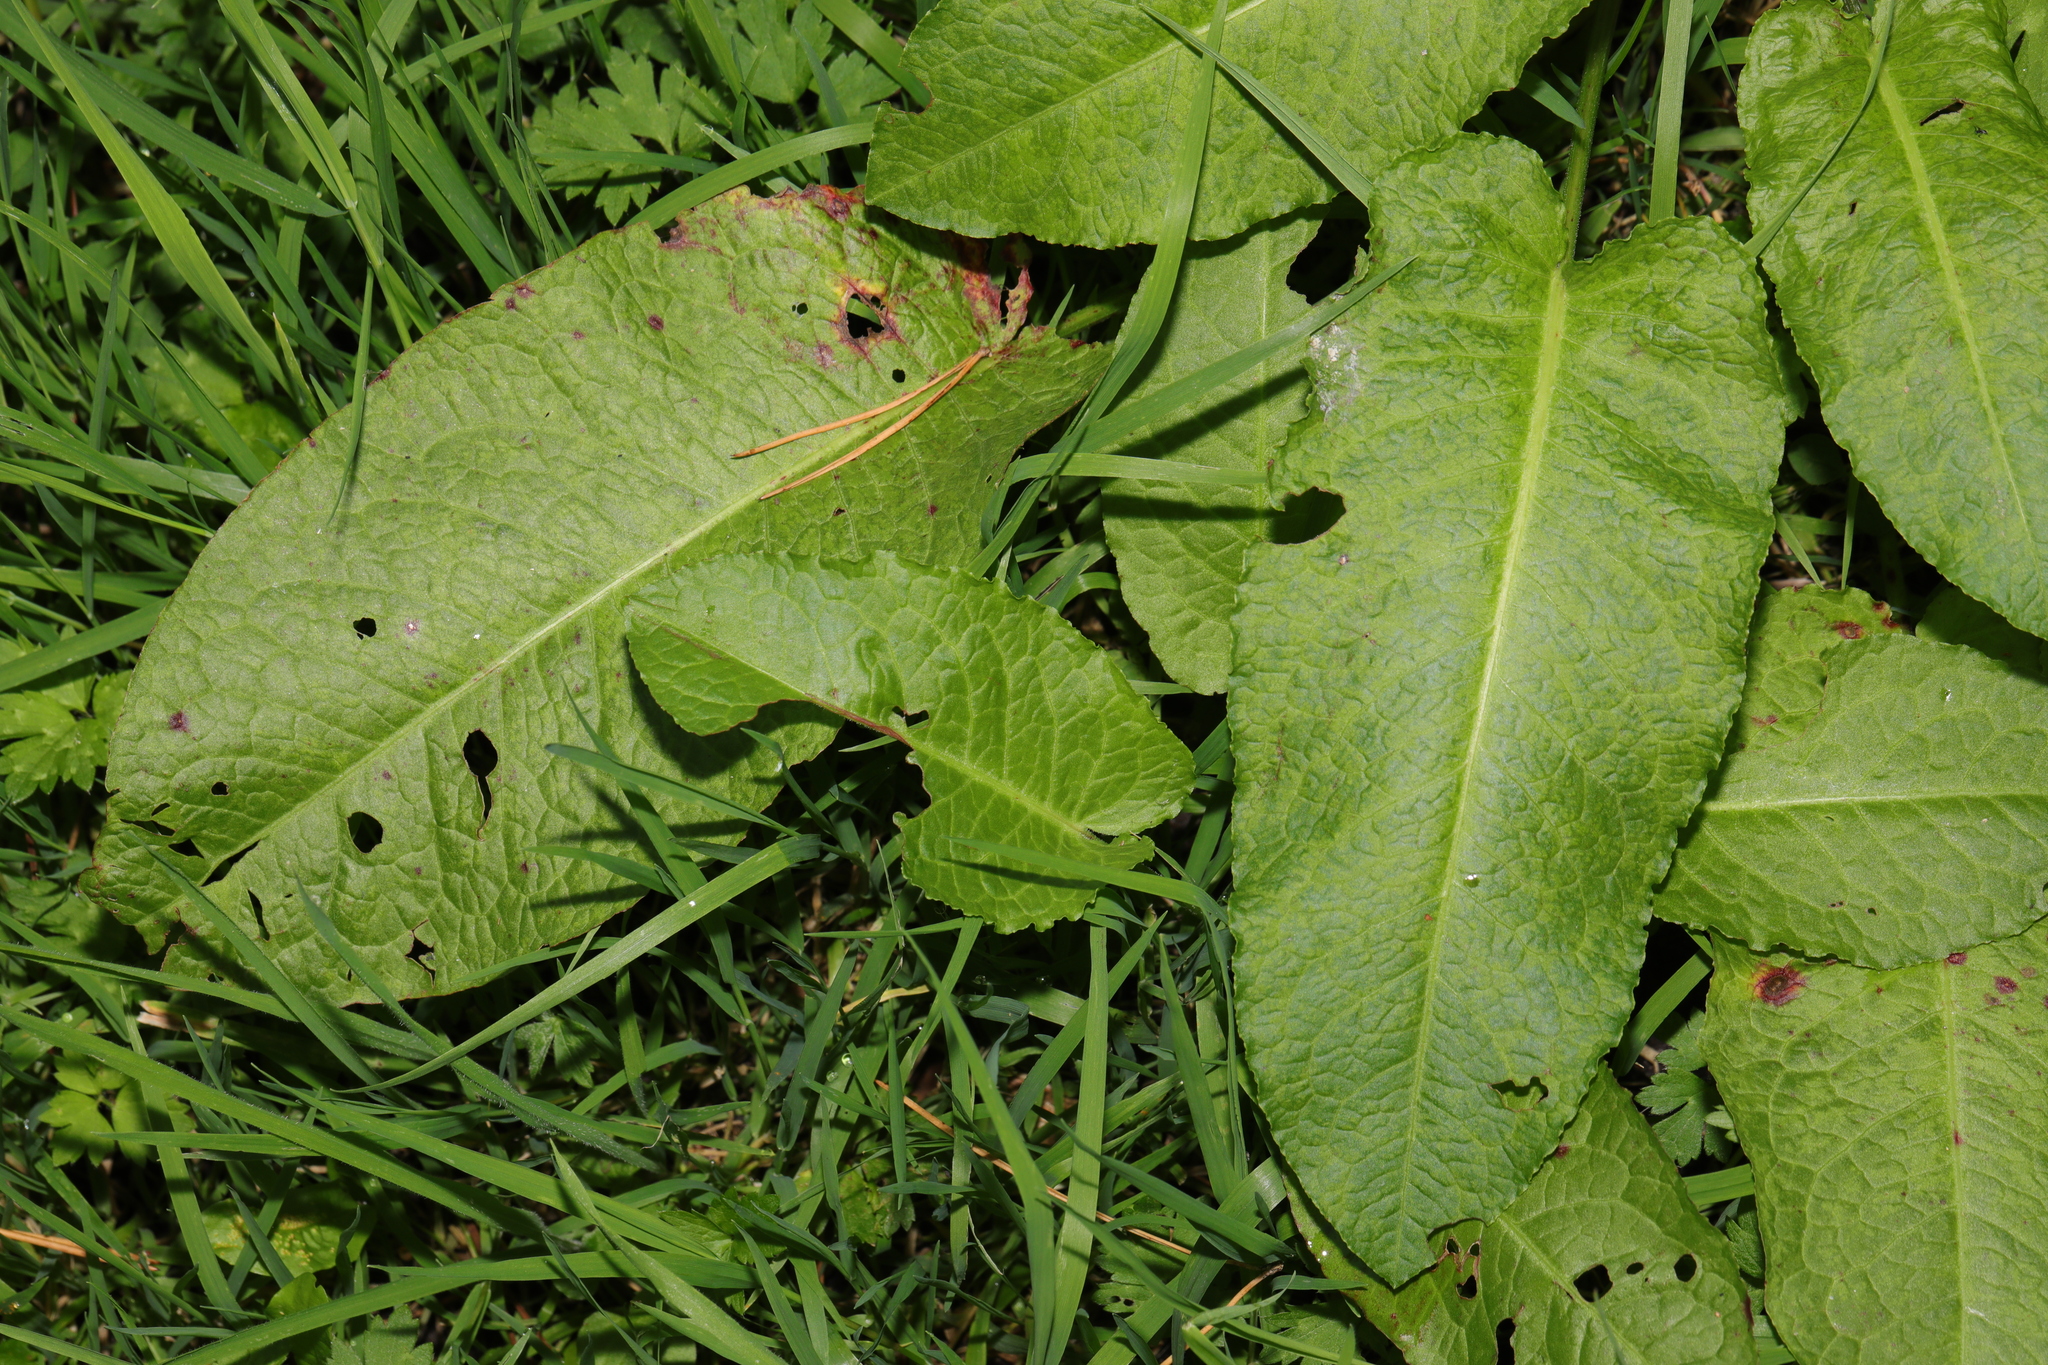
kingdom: Plantae
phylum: Tracheophyta
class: Magnoliopsida
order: Caryophyllales
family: Polygonaceae
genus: Rumex
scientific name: Rumex obtusifolius
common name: Bitter dock
